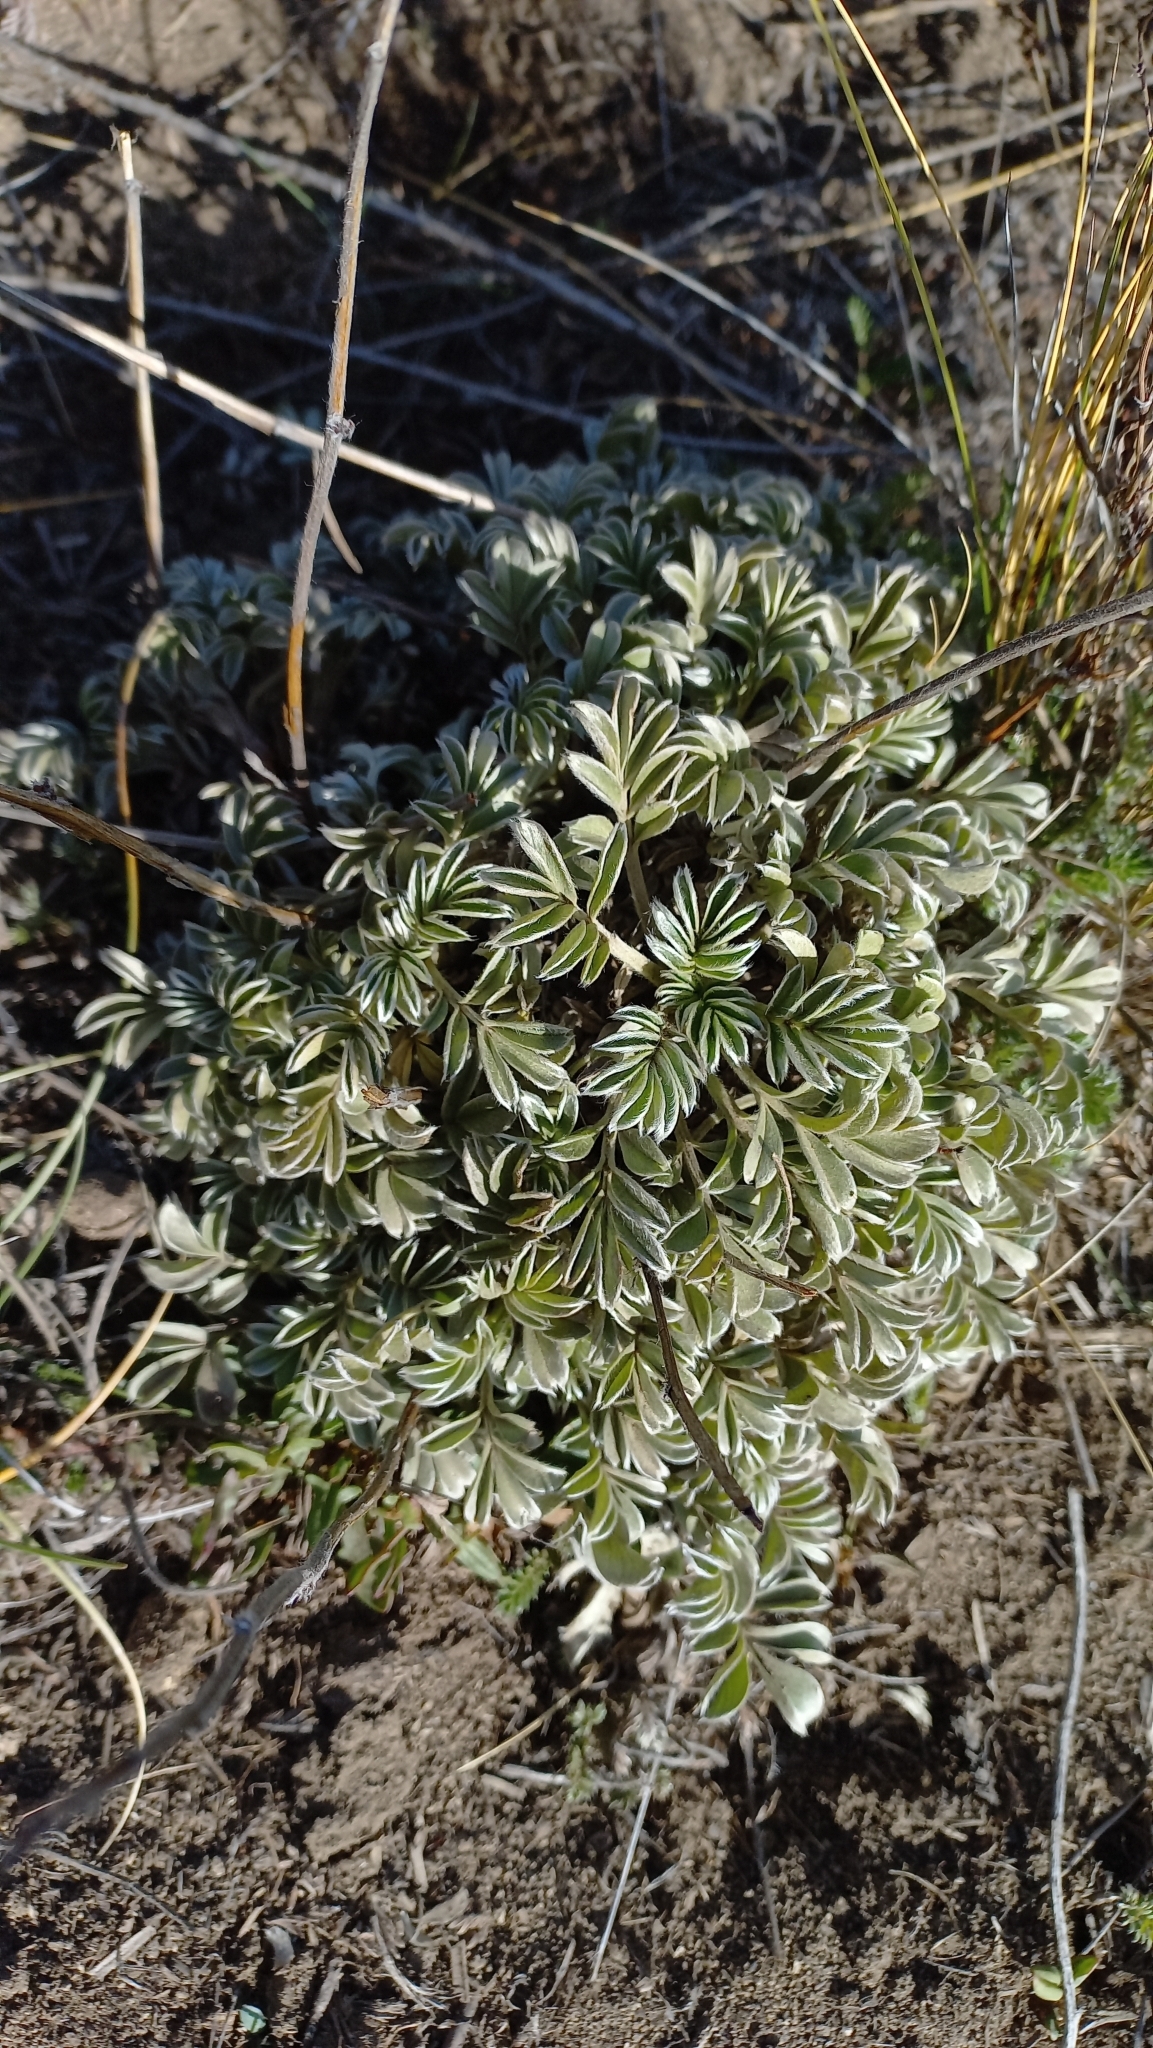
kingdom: Plantae
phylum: Tracheophyta
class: Magnoliopsida
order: Rosales
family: Rosaceae
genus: Acaena
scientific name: Acaena integerrima
